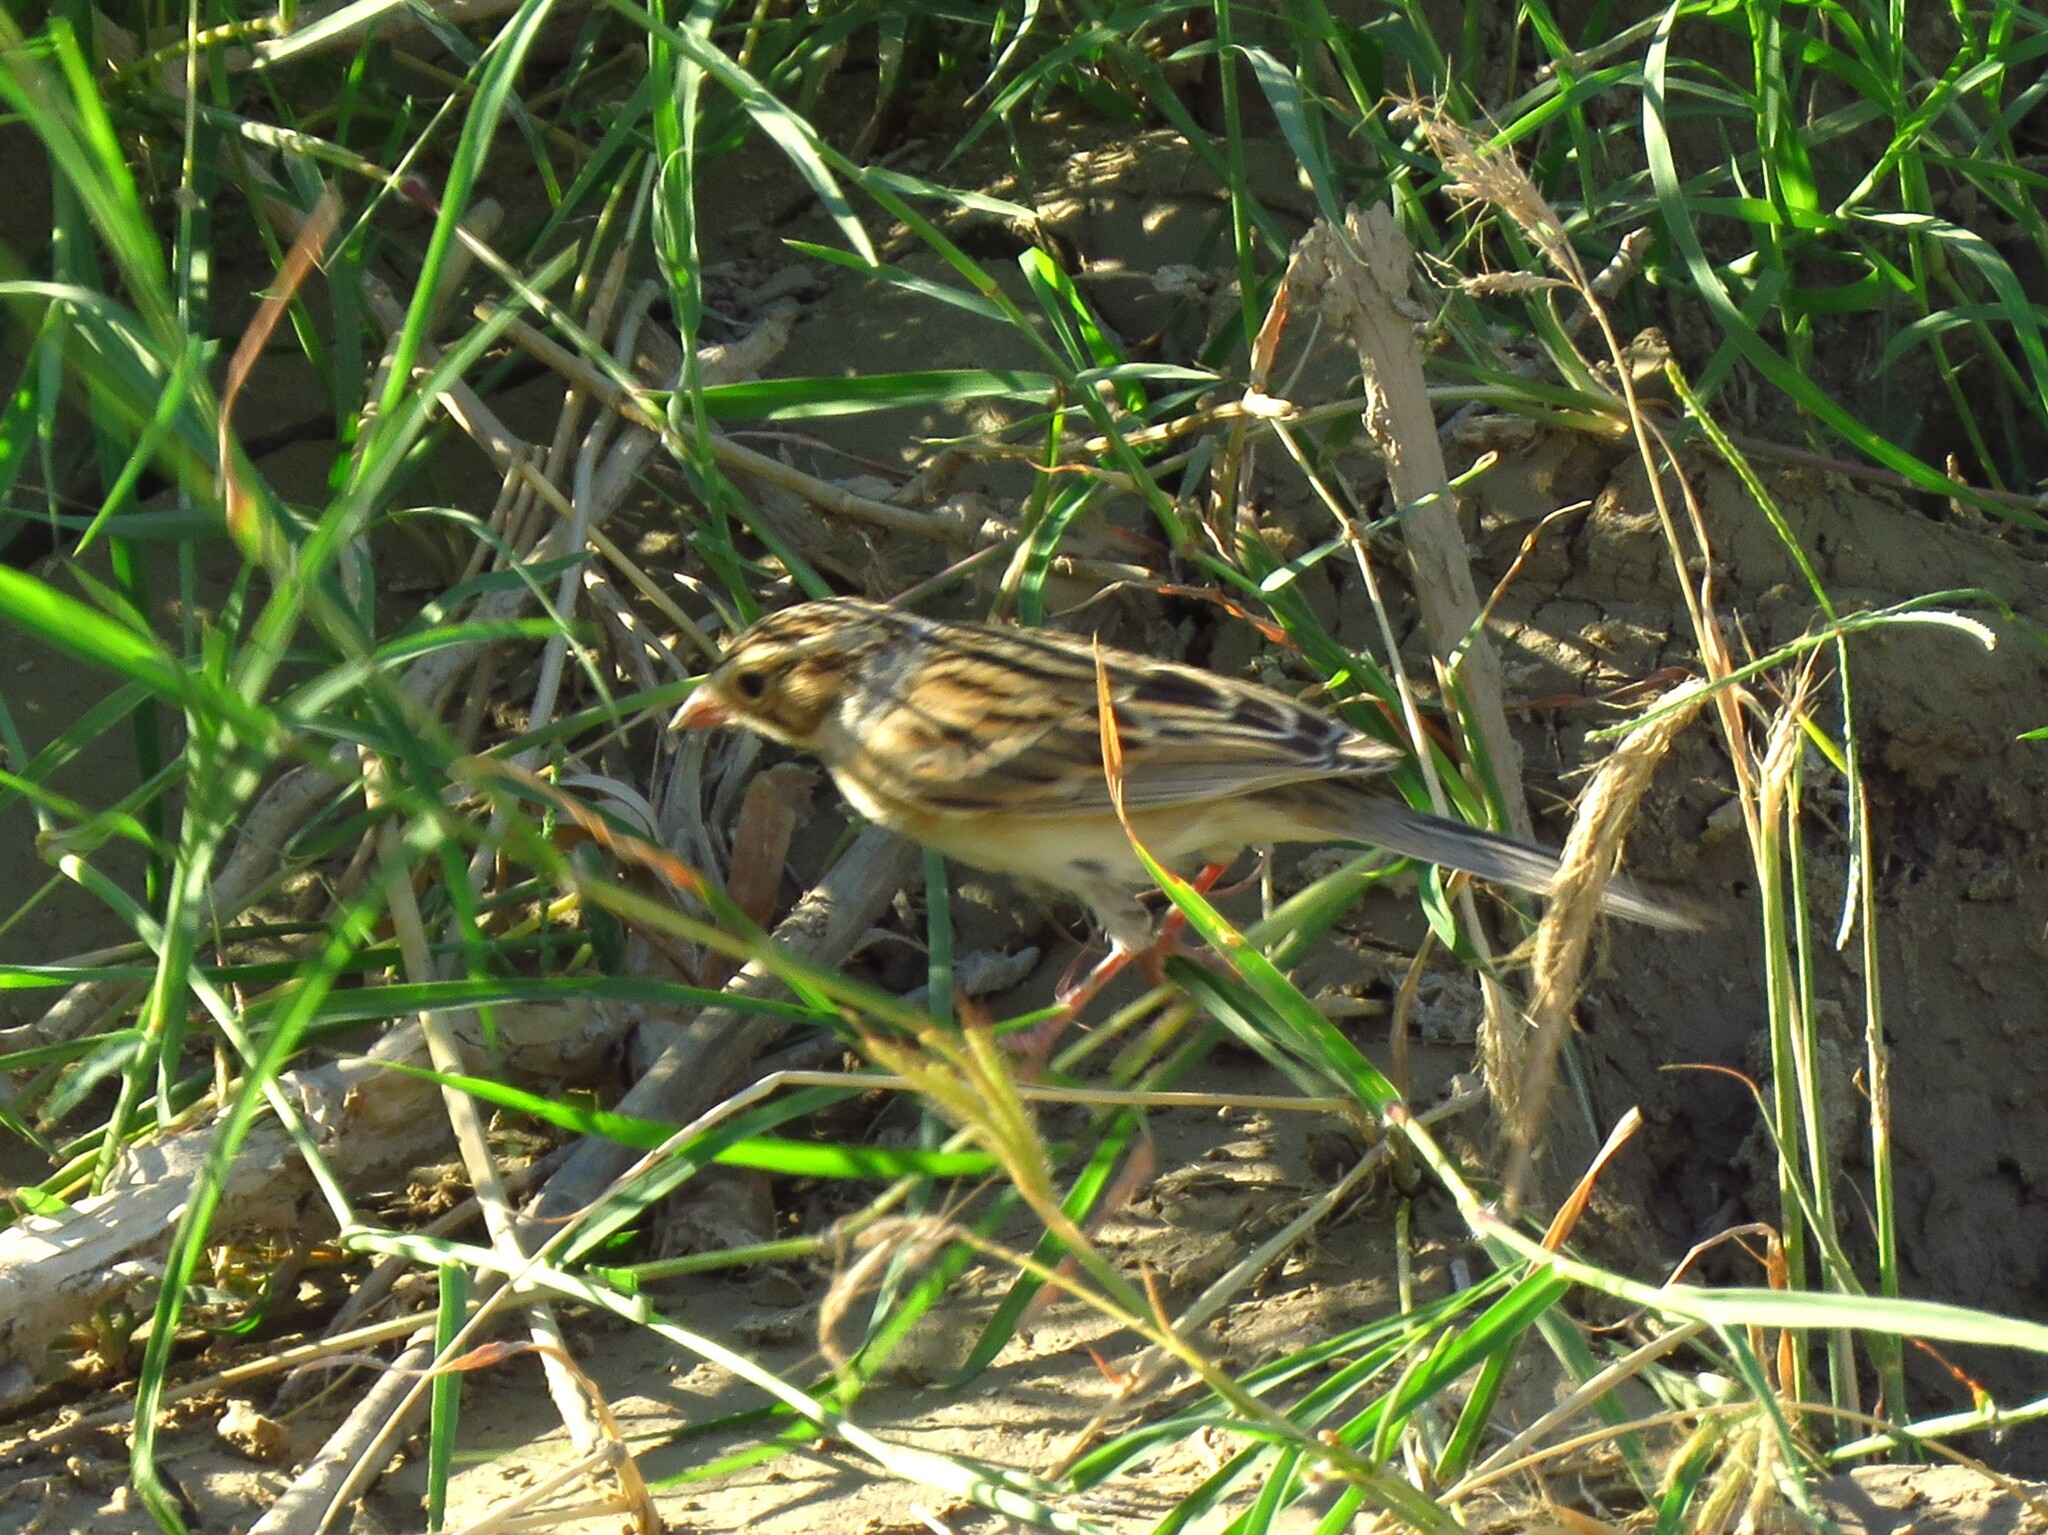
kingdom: Animalia
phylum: Chordata
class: Aves
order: Passeriformes
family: Passerellidae
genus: Spizella
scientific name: Spizella pallida
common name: Clay-colored sparrow
